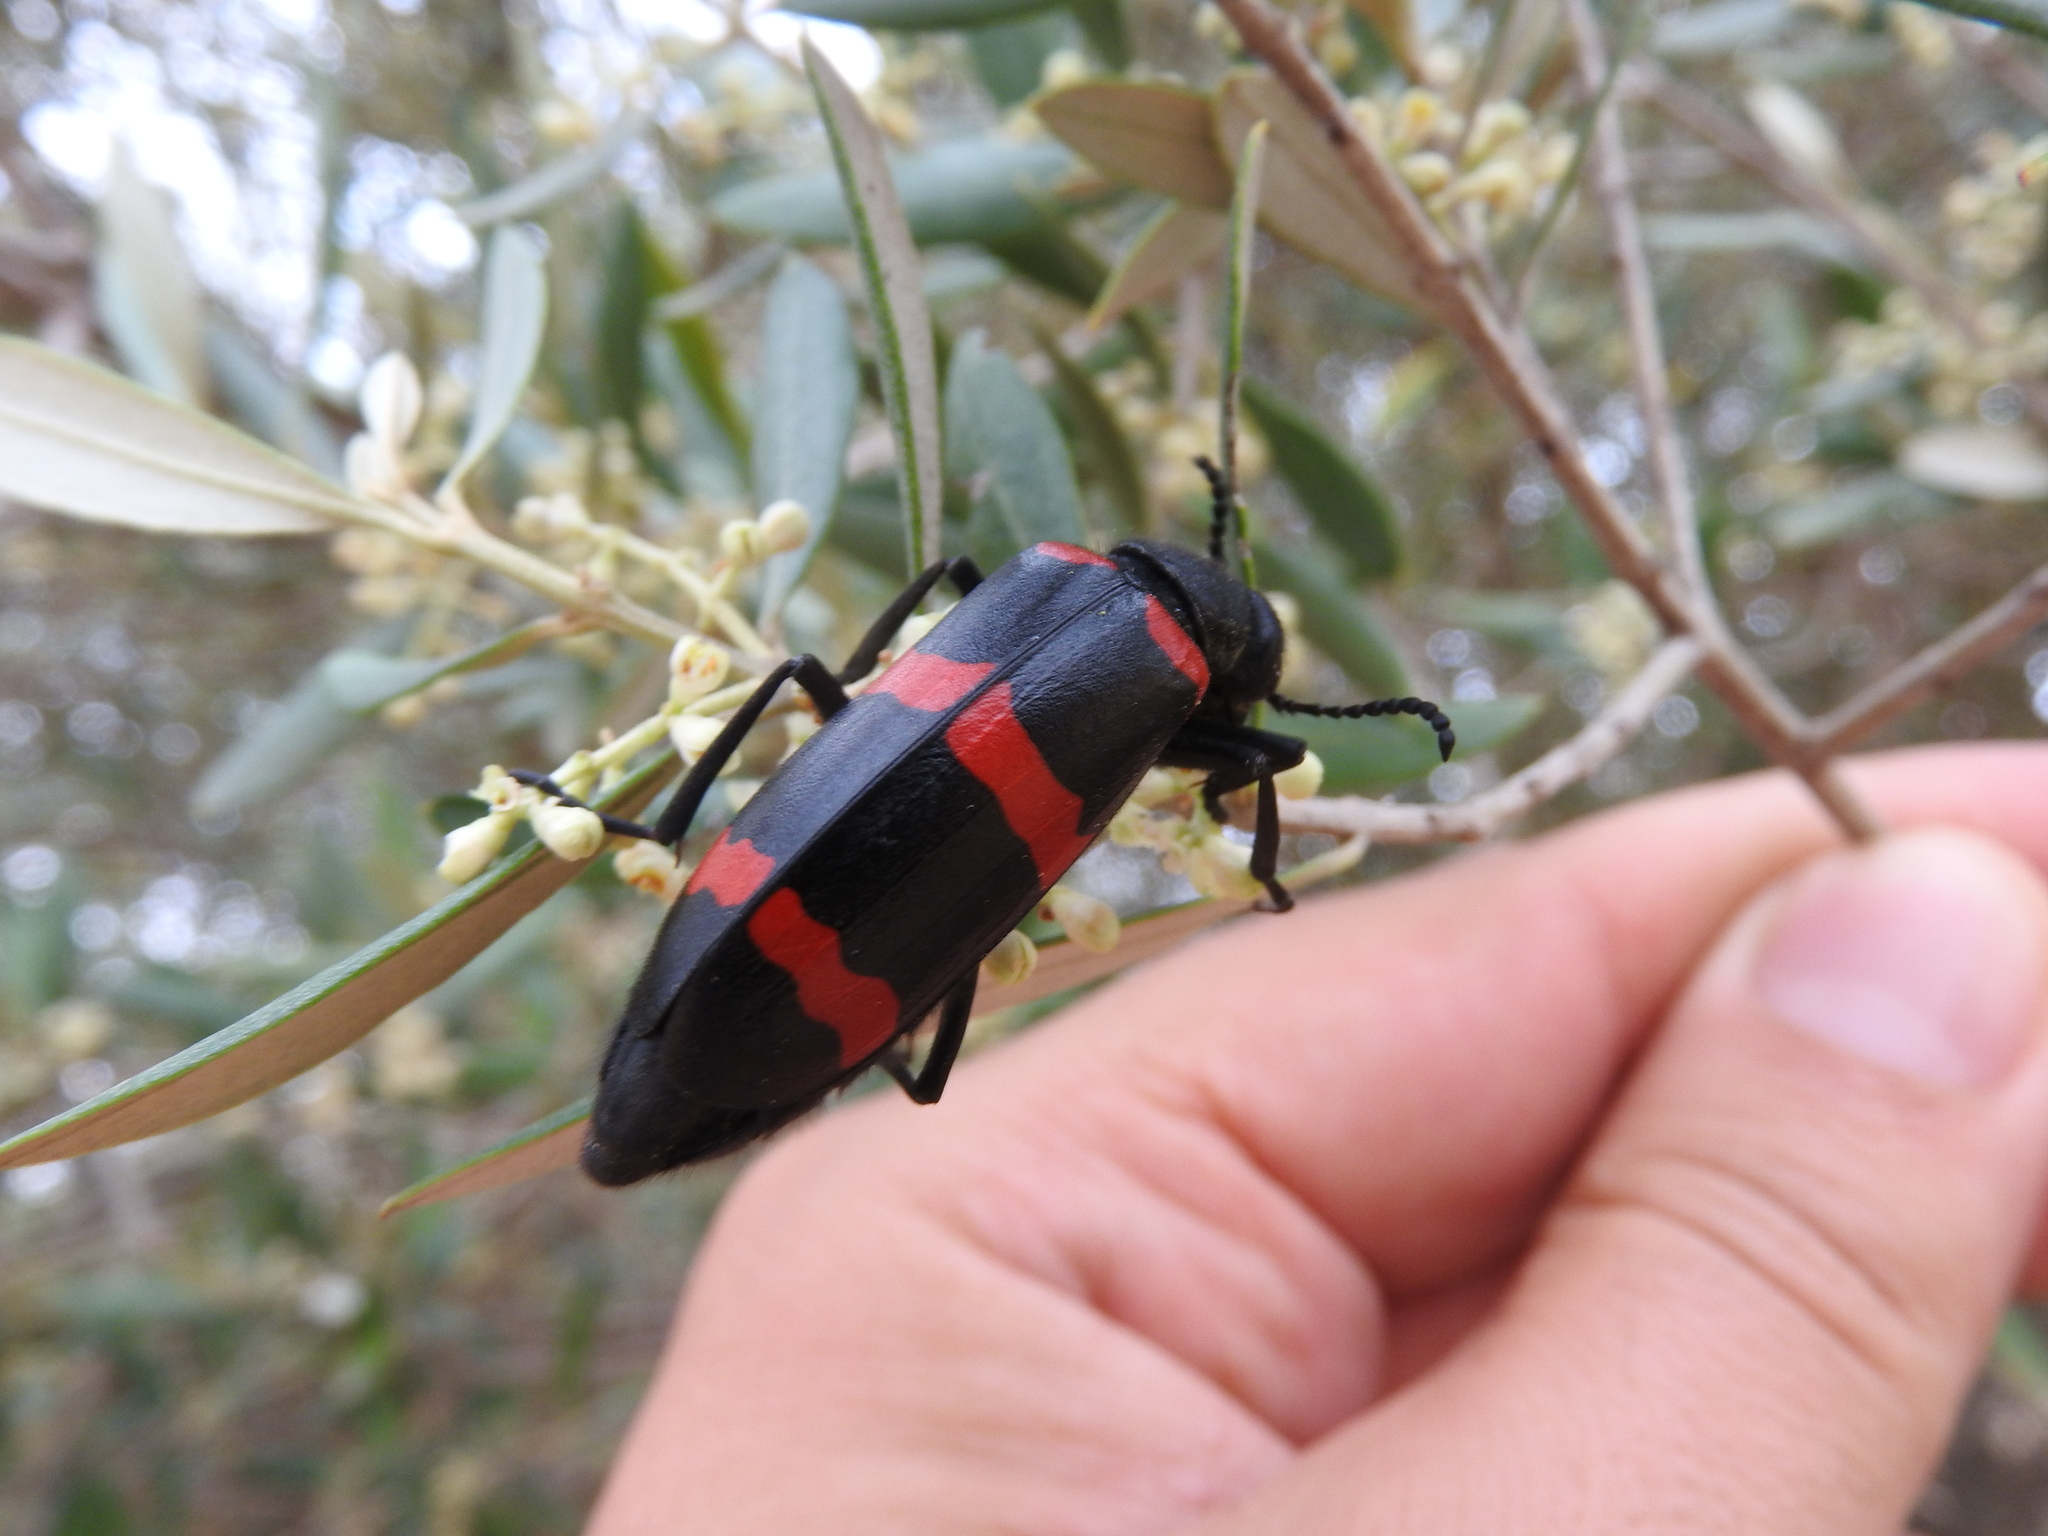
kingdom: Animalia
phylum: Arthropoda
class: Insecta
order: Coleoptera
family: Meloidae
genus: Mylabris
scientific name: Mylabris oleae
